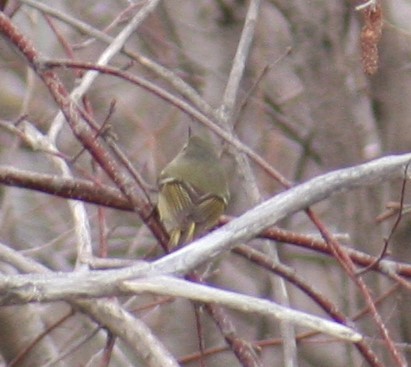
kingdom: Animalia
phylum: Chordata
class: Aves
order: Passeriformes
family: Regulidae
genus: Regulus
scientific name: Regulus calendula
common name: Ruby-crowned kinglet
